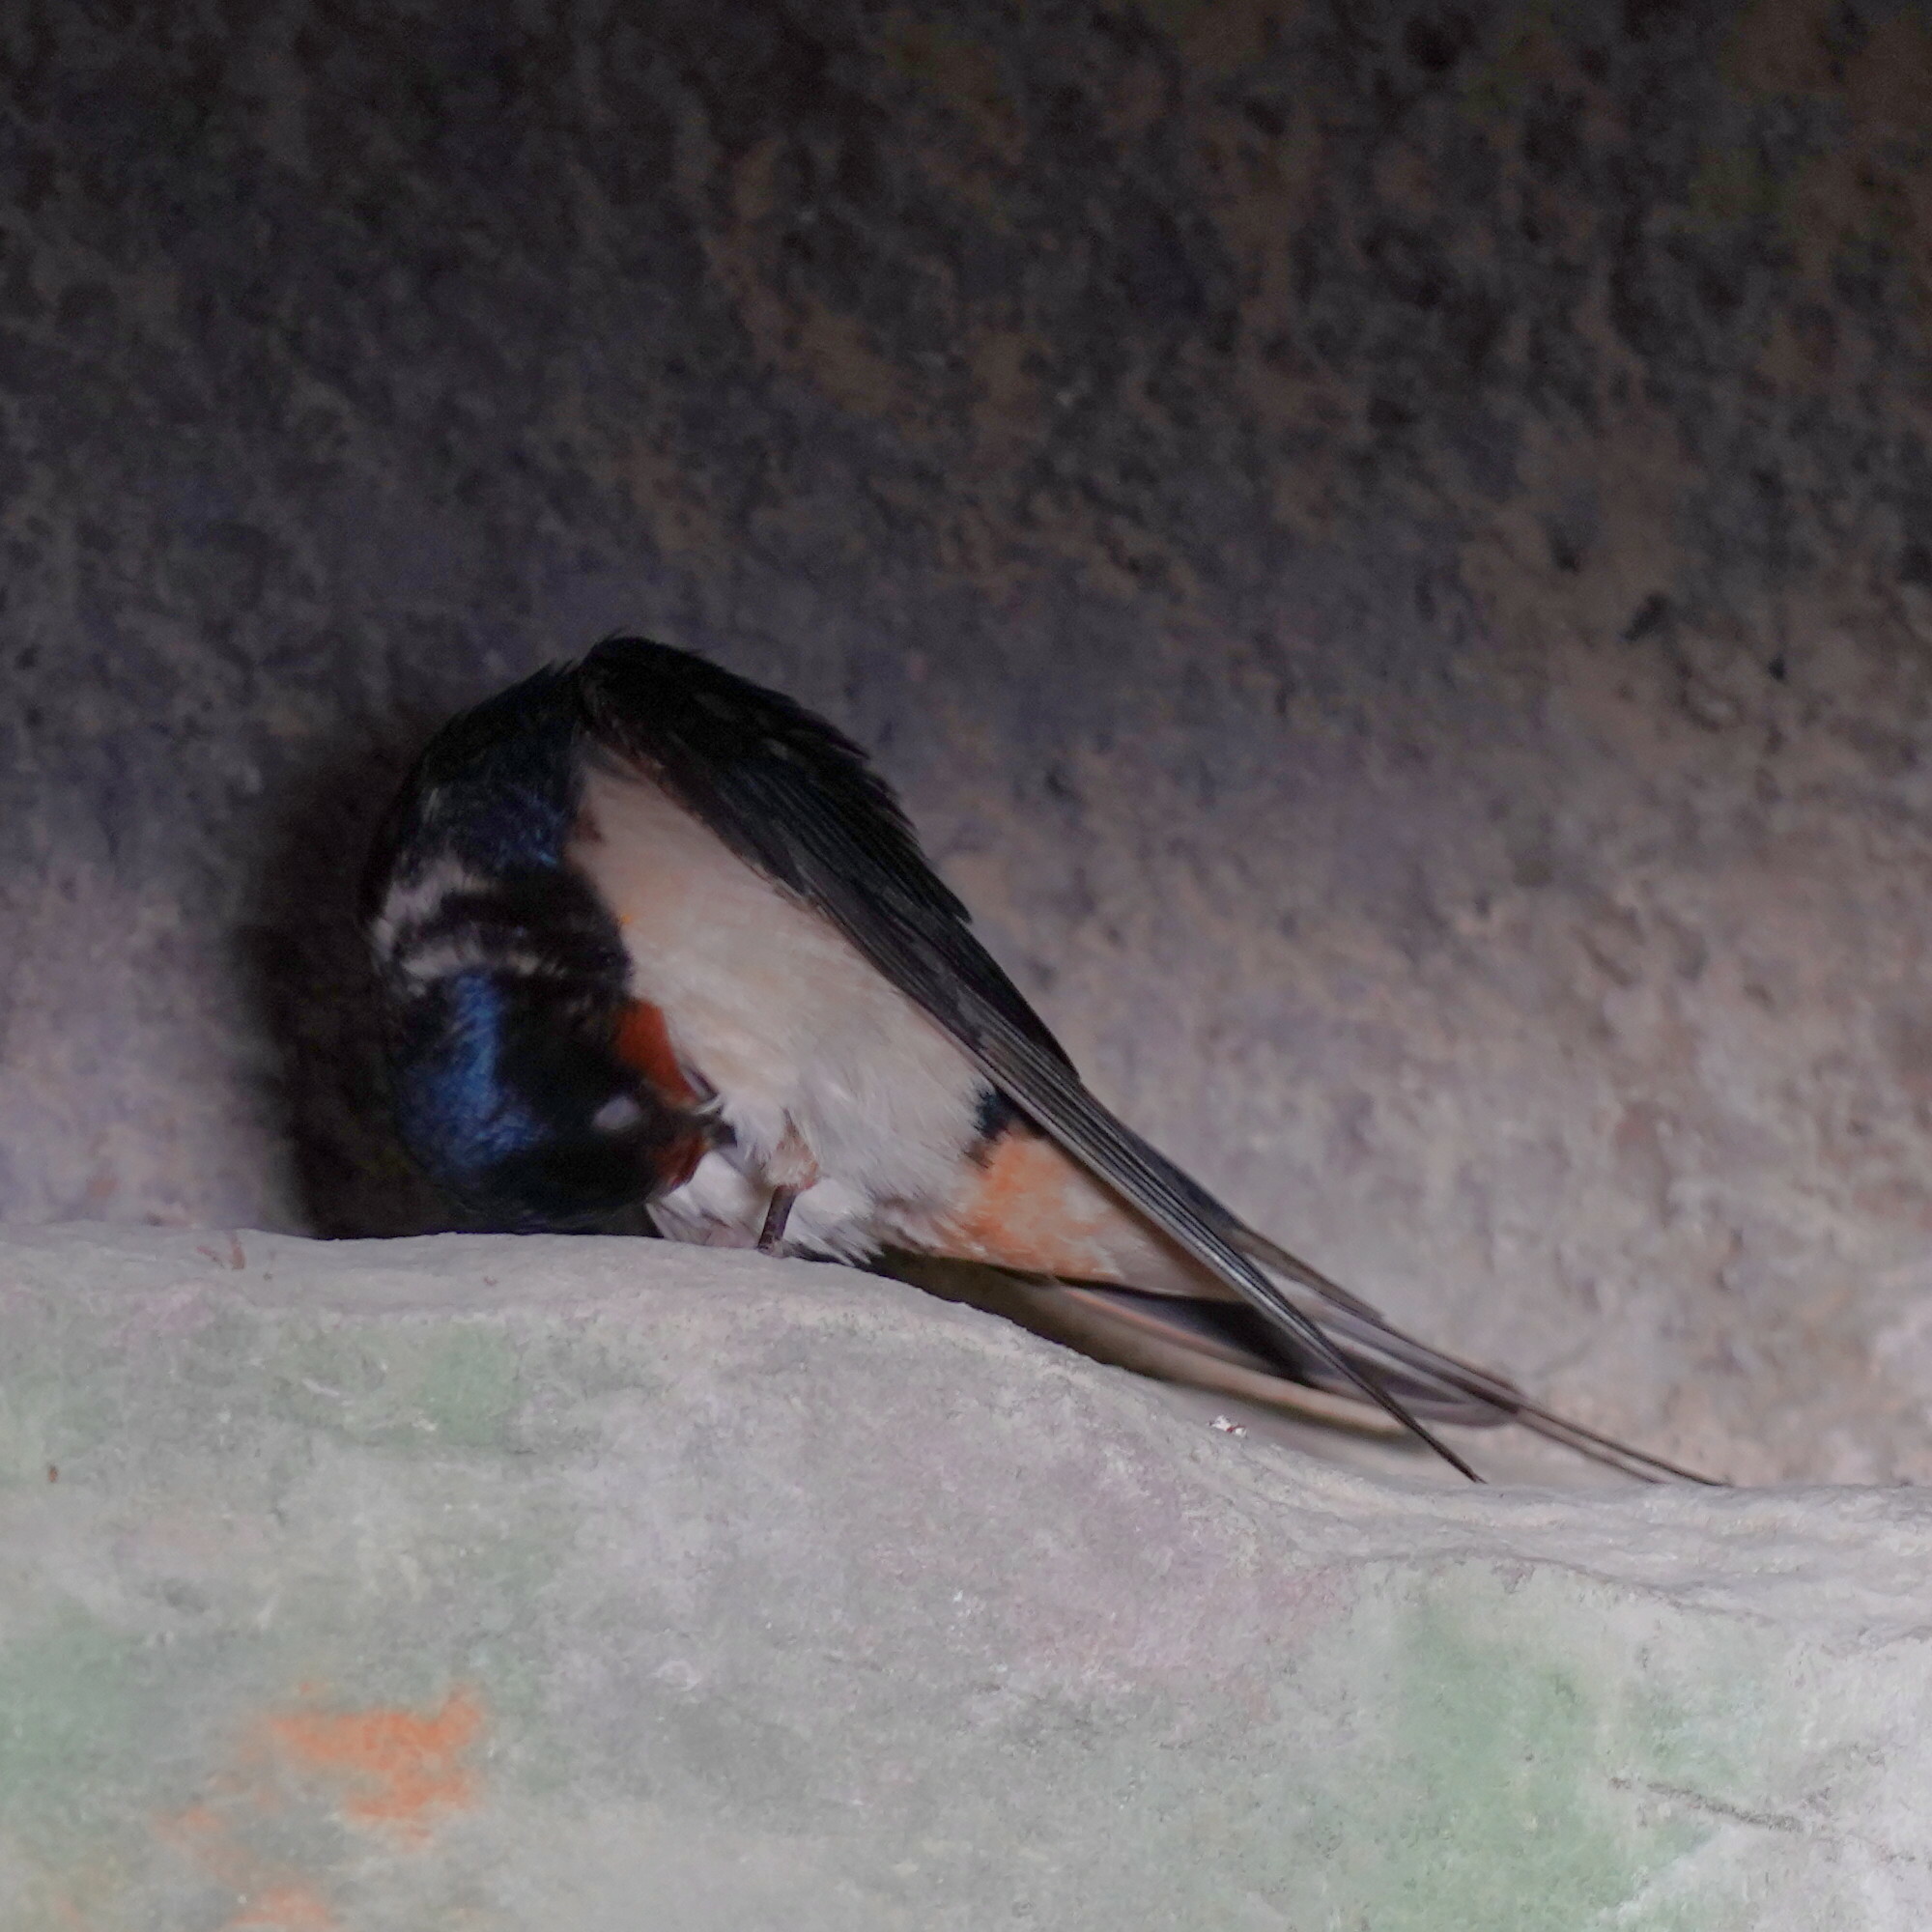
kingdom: Animalia
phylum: Chordata
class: Aves
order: Passeriformes
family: Hirundinidae
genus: Hirundo
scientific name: Hirundo rustica
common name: Barn swallow
